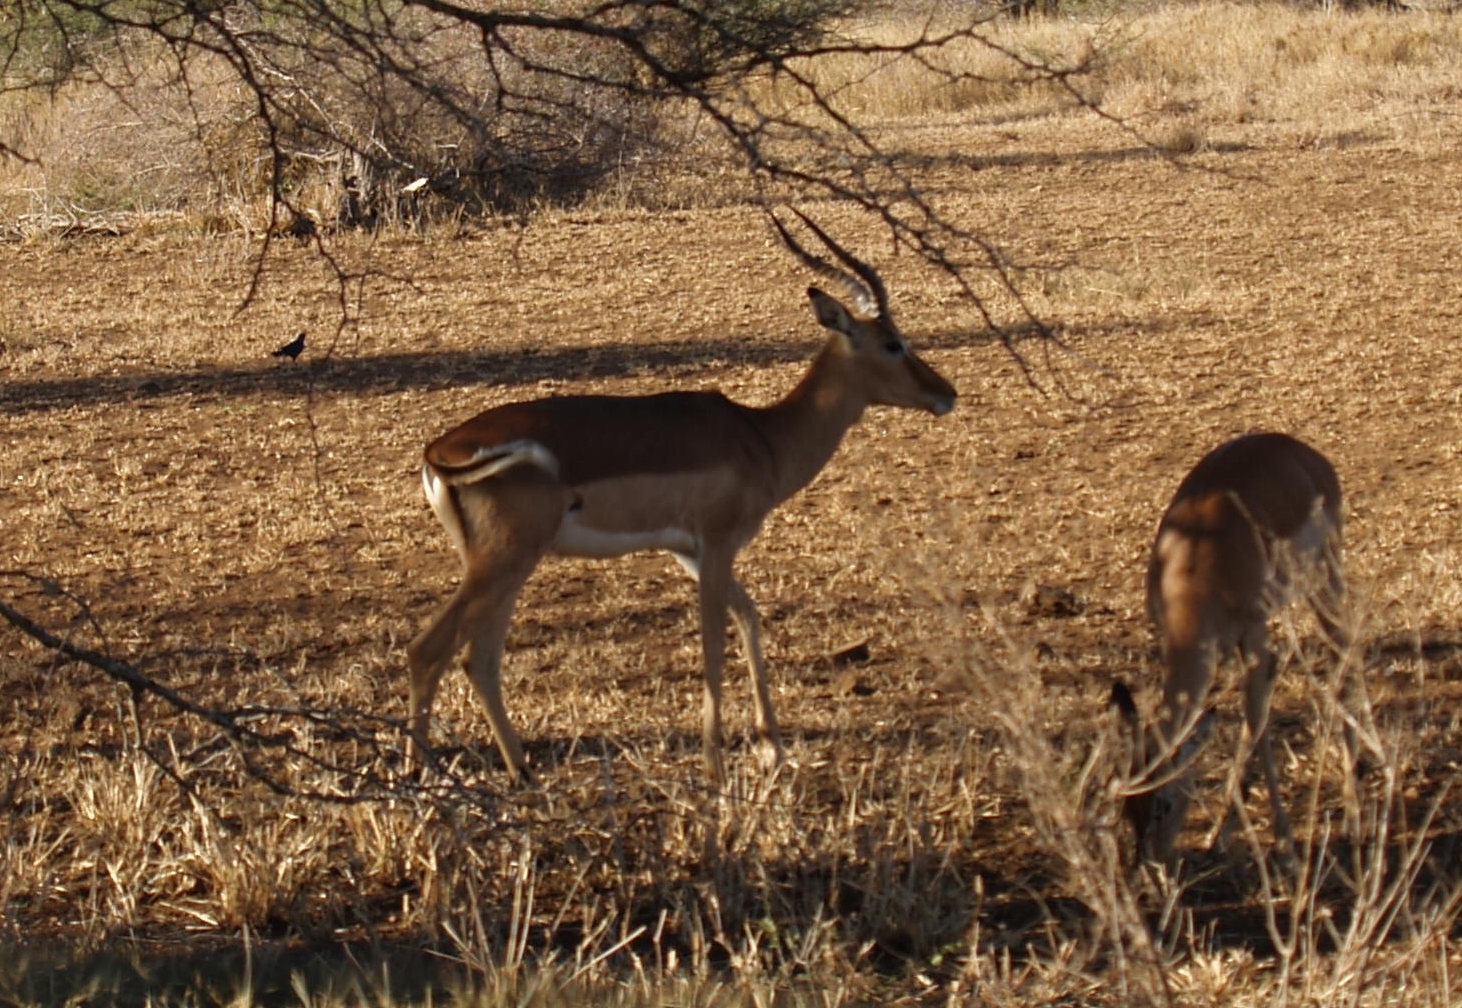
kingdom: Animalia
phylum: Chordata
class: Mammalia
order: Artiodactyla
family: Bovidae
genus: Aepyceros
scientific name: Aepyceros melampus
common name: Impala
